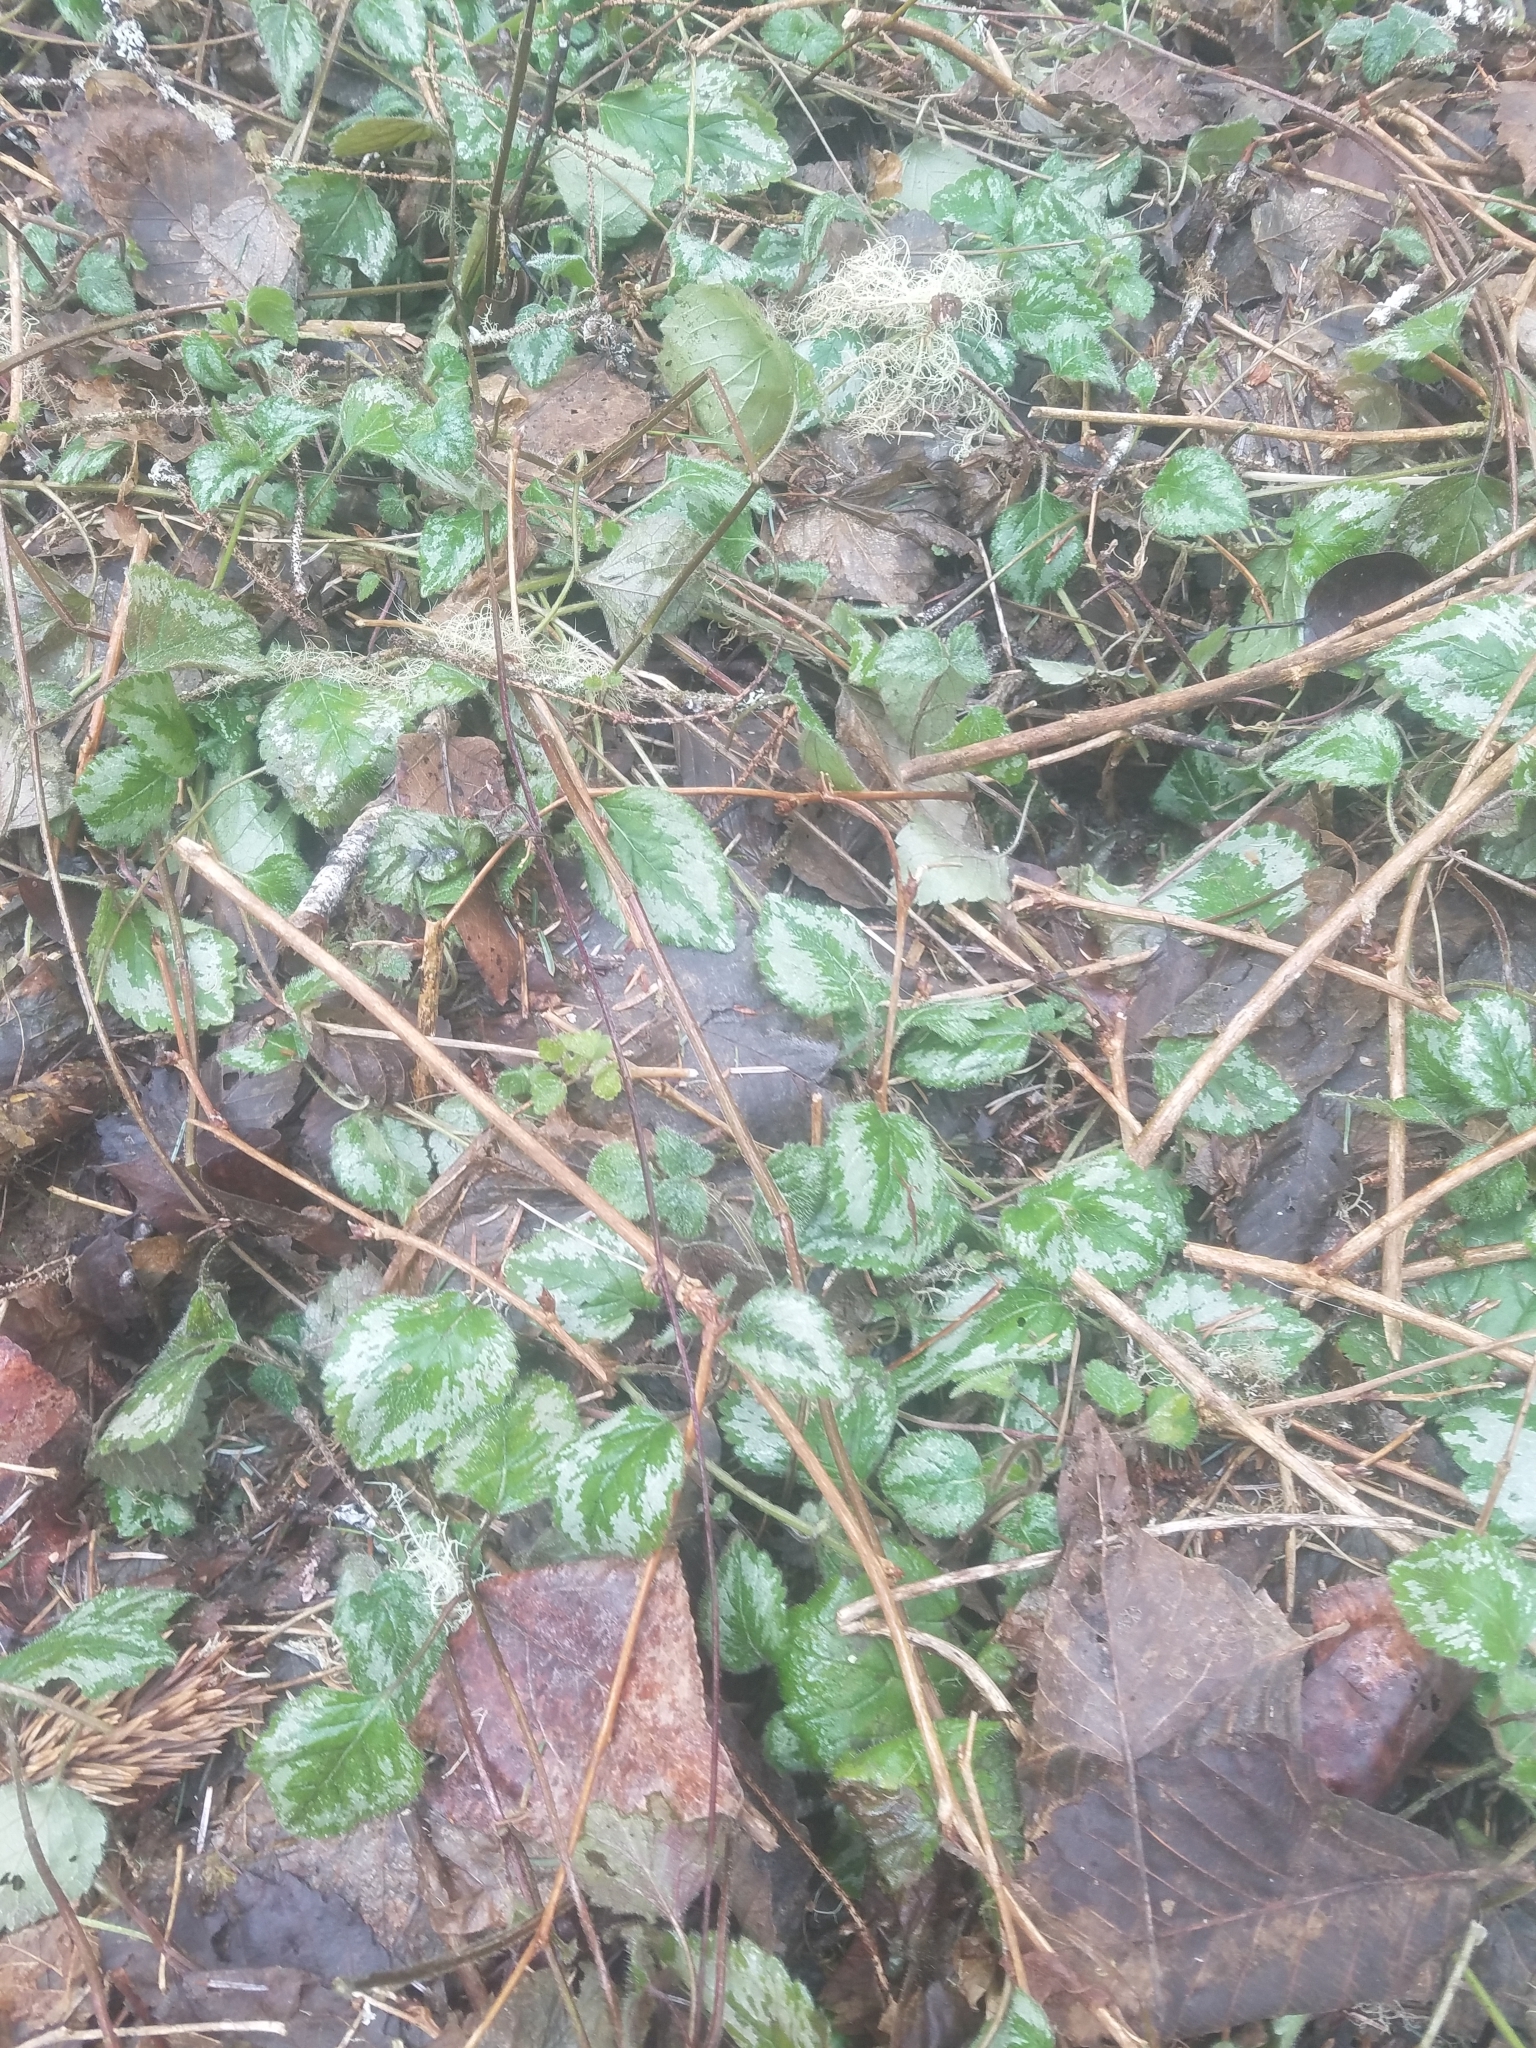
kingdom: Plantae
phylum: Tracheophyta
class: Magnoliopsida
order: Lamiales
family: Lamiaceae
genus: Lamium
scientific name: Lamium galeobdolon
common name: Yellow archangel
